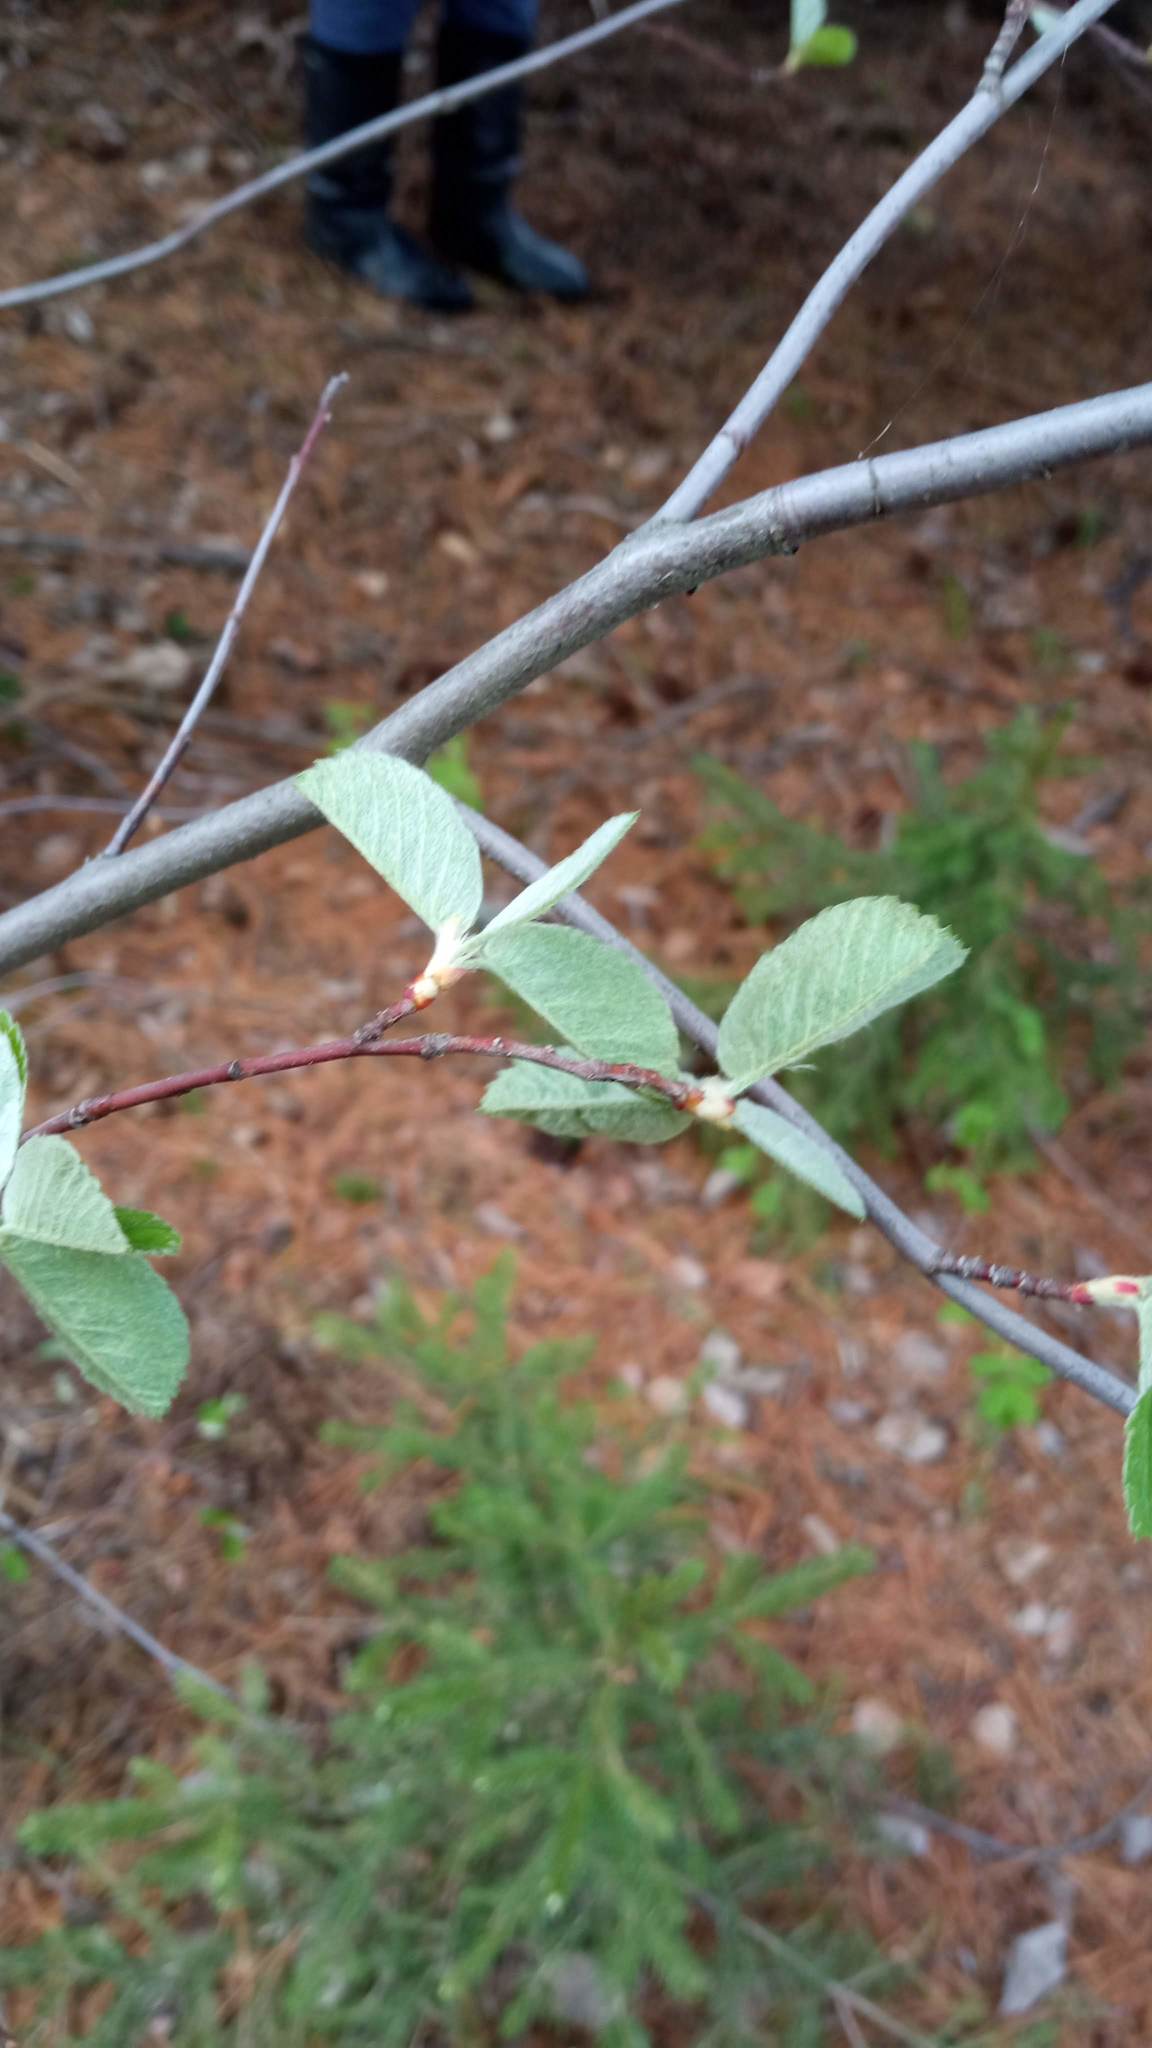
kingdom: Plantae
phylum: Tracheophyta
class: Magnoliopsida
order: Rosales
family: Rosaceae
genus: Amelanchier
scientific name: Amelanchier alnifolia
